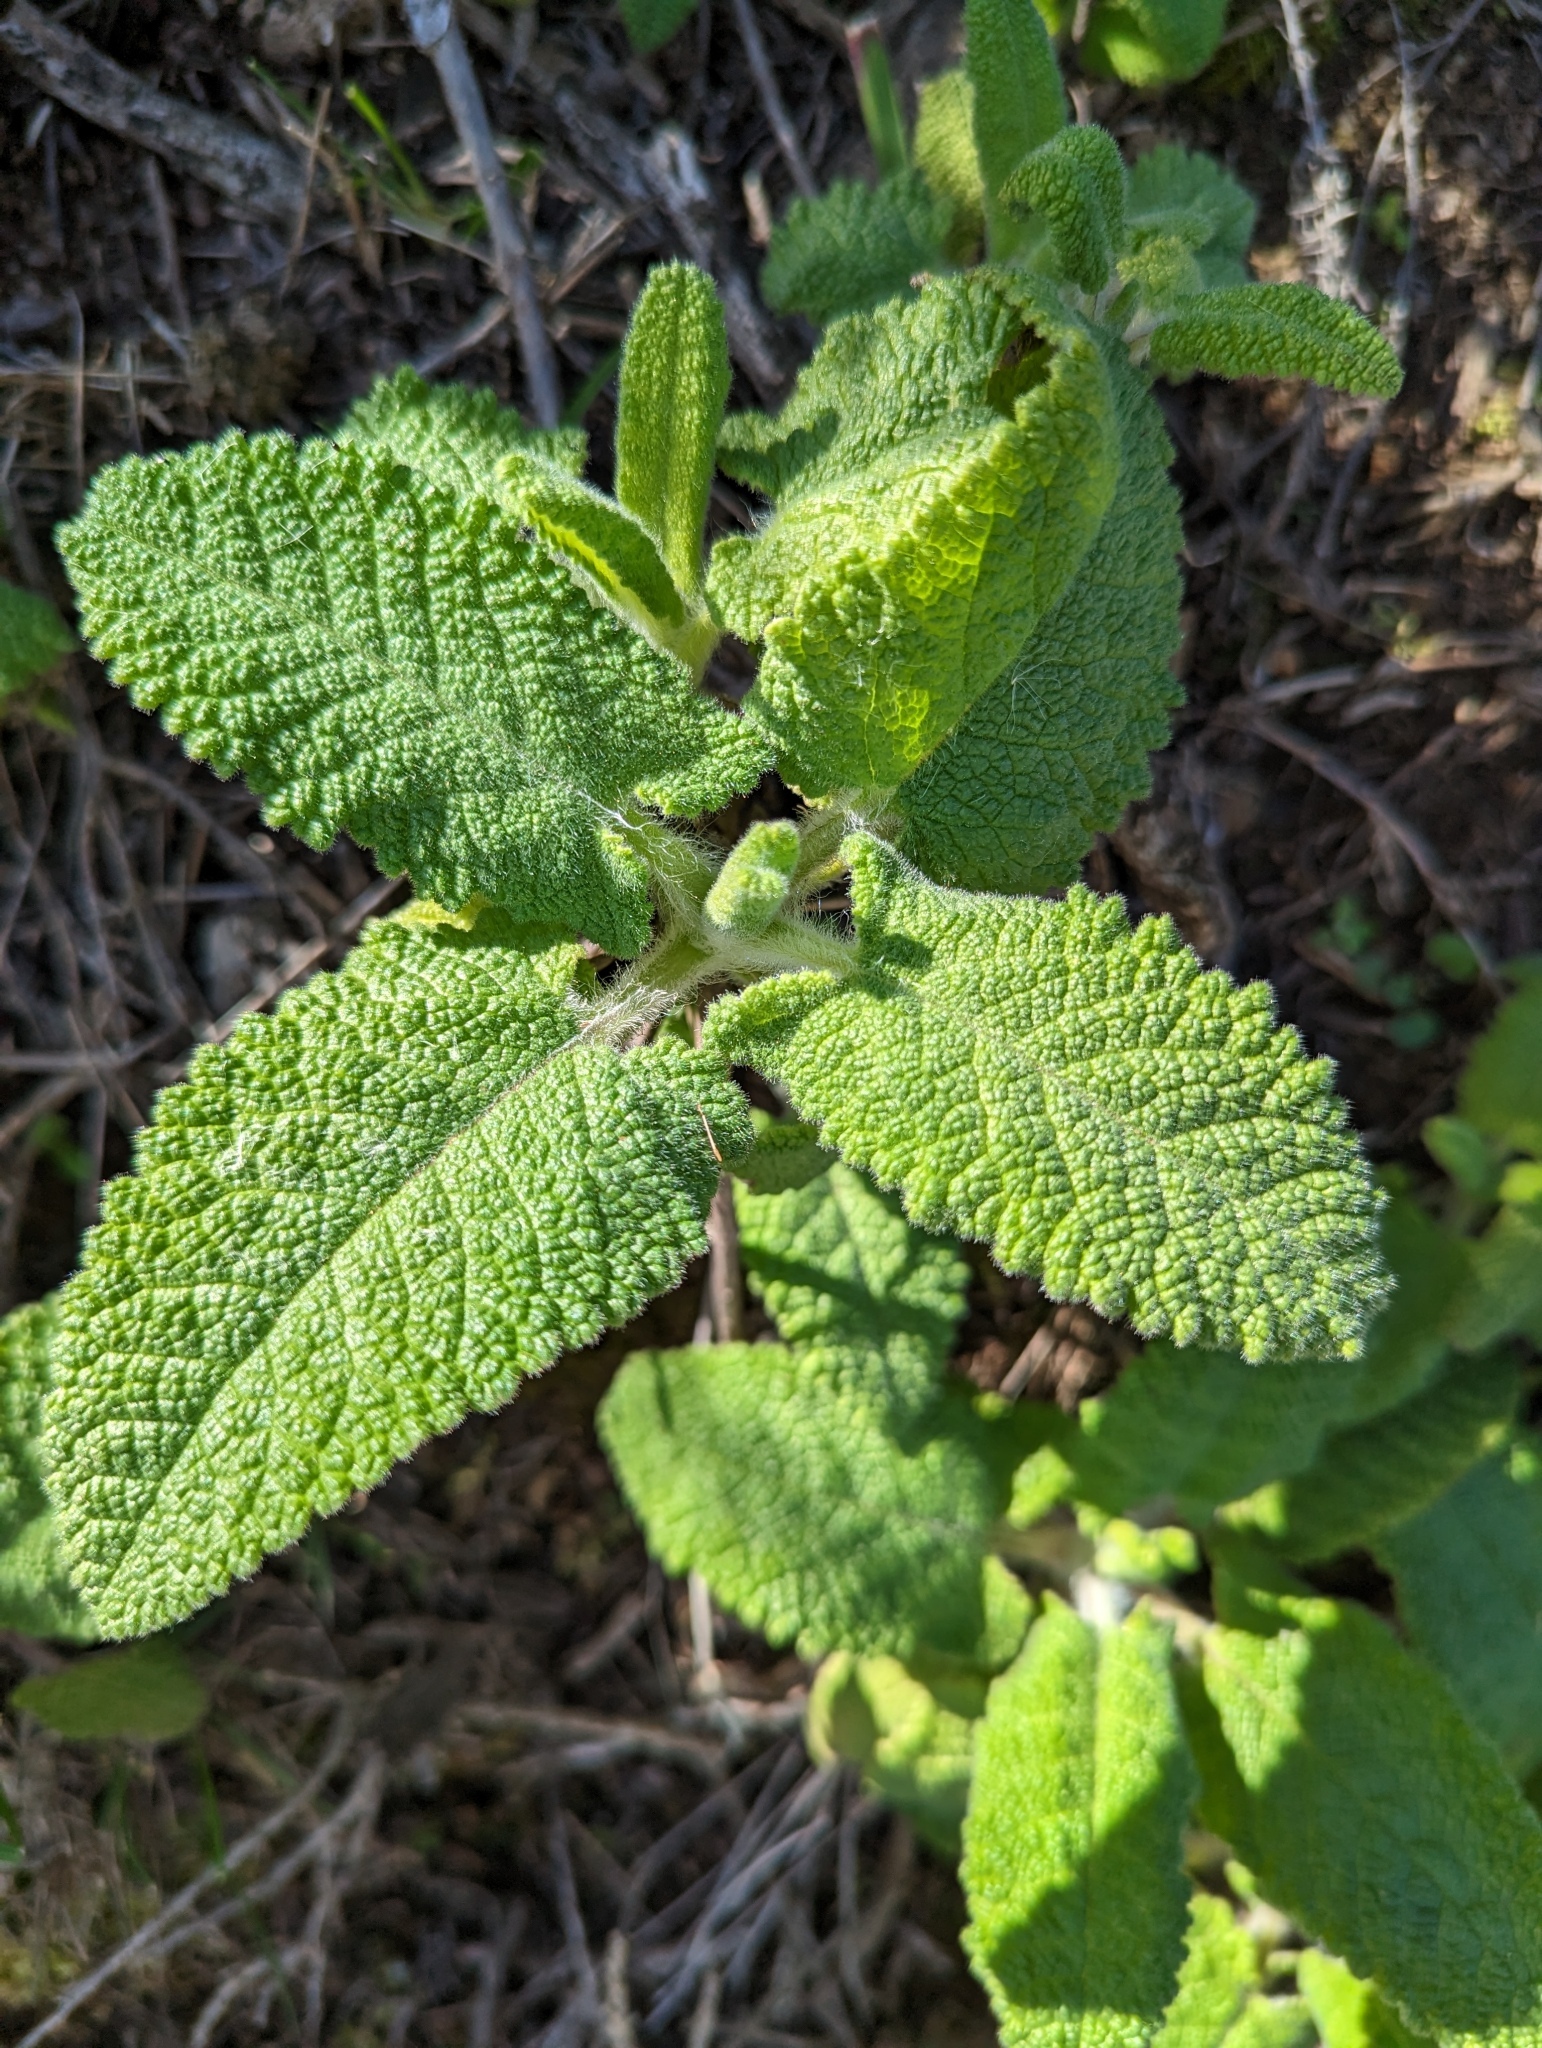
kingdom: Plantae
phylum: Tracheophyta
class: Magnoliopsida
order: Lamiales
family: Lamiaceae
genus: Salvia
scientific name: Salvia spathacea
